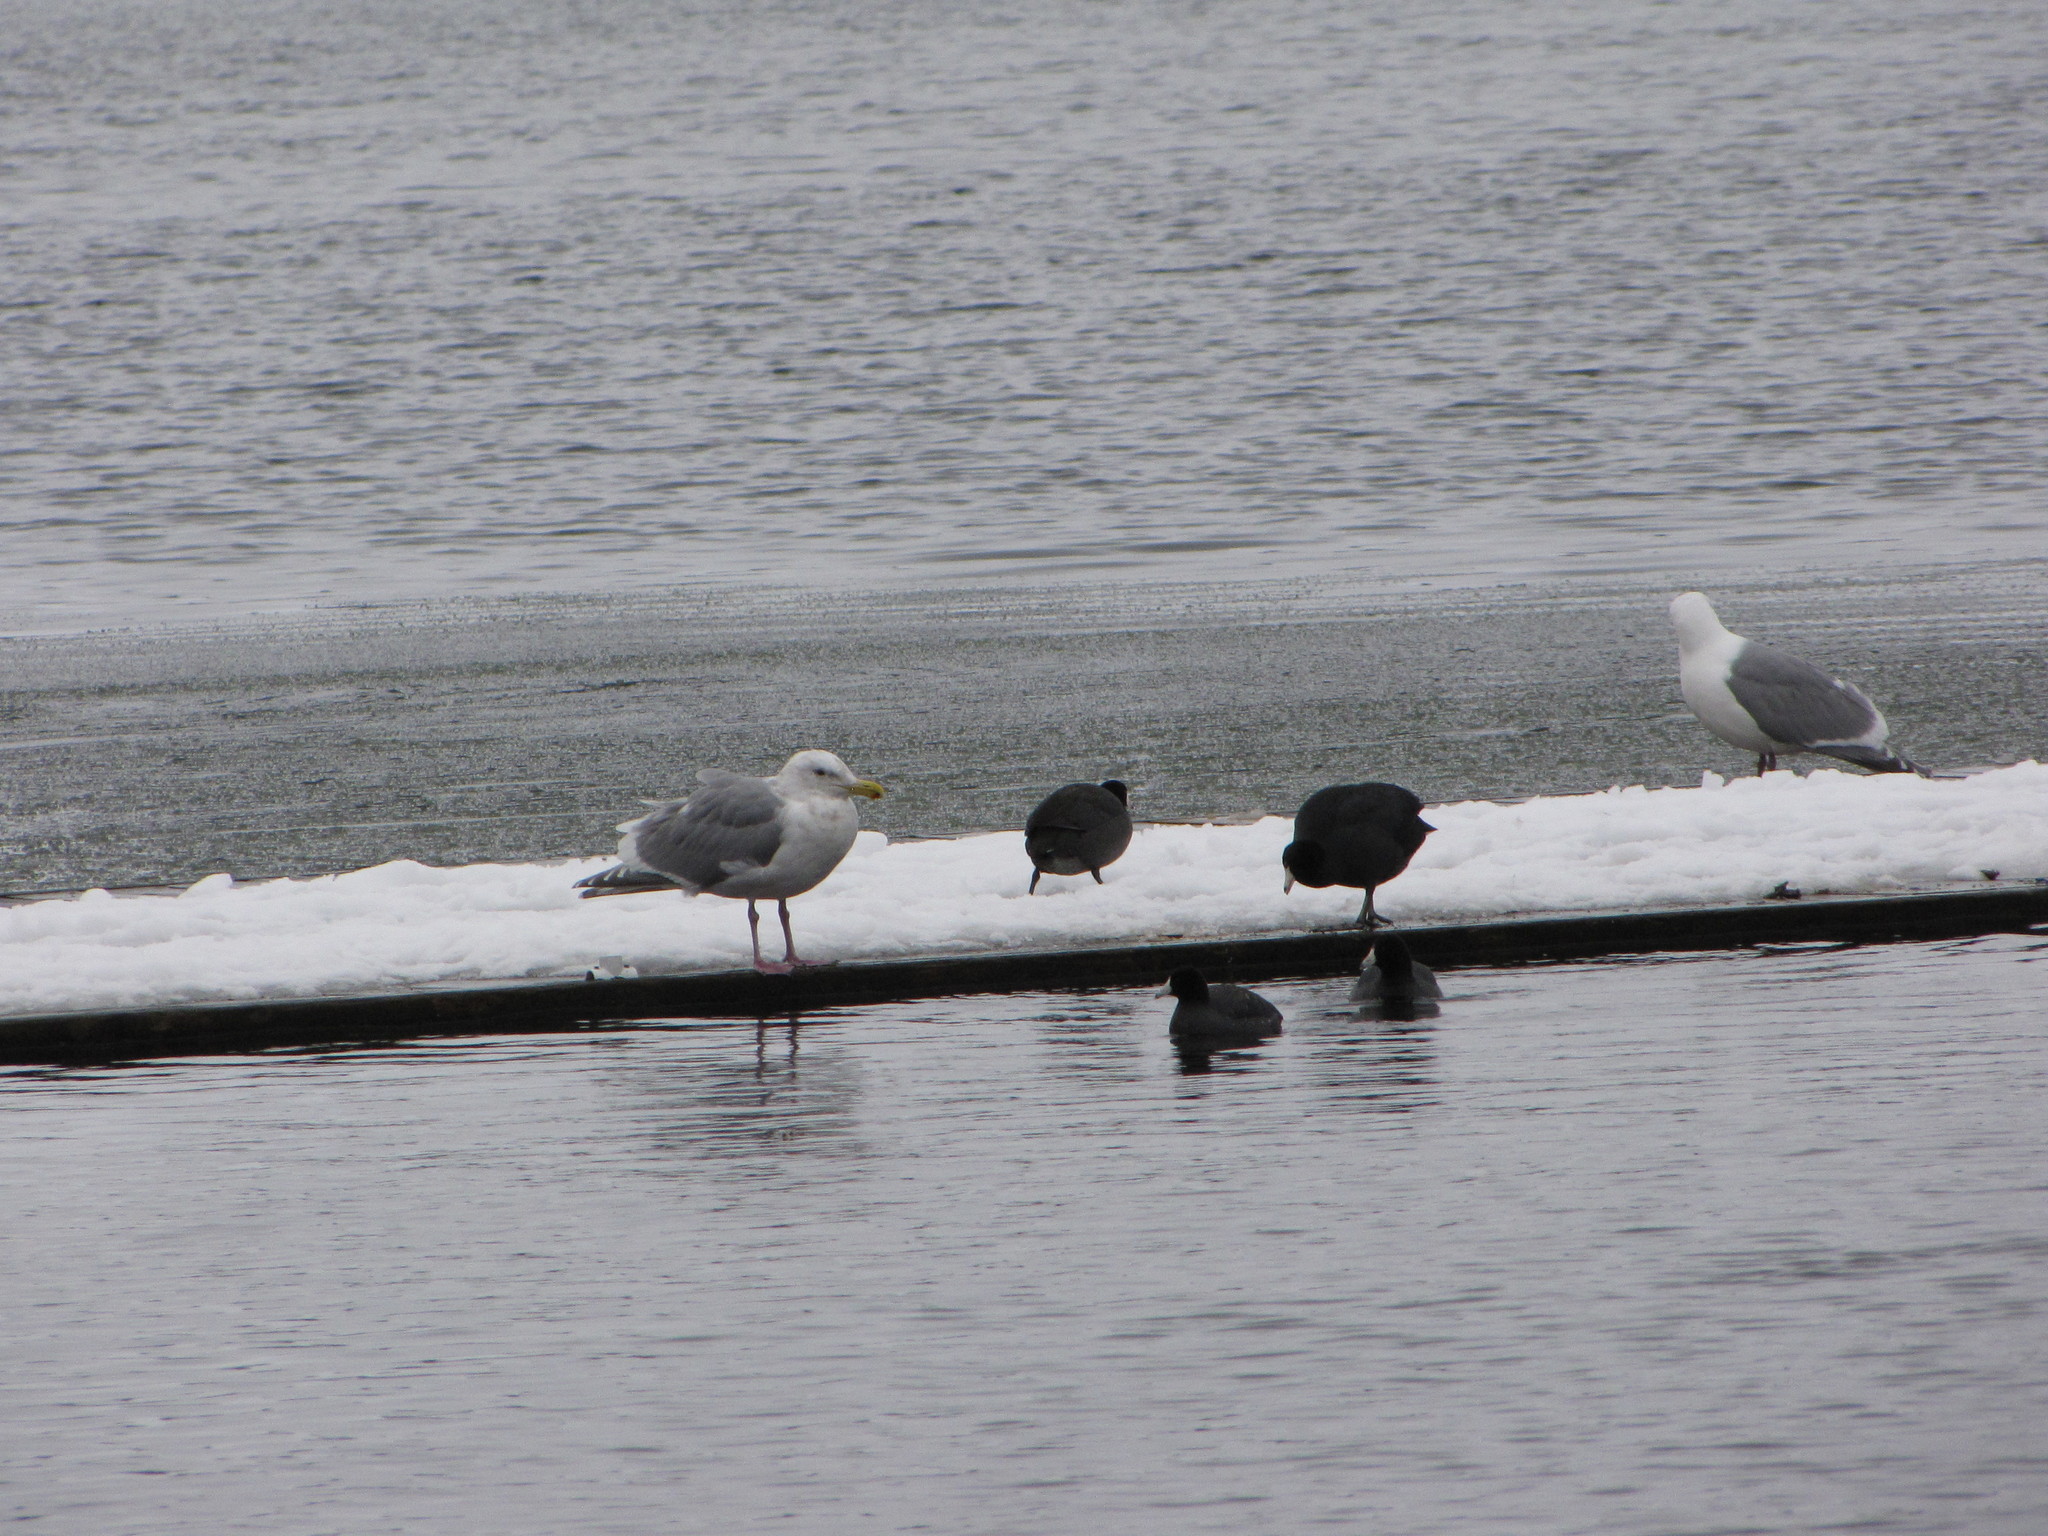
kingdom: Animalia
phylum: Chordata
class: Aves
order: Gruiformes
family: Rallidae
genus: Fulica
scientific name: Fulica americana
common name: American coot
